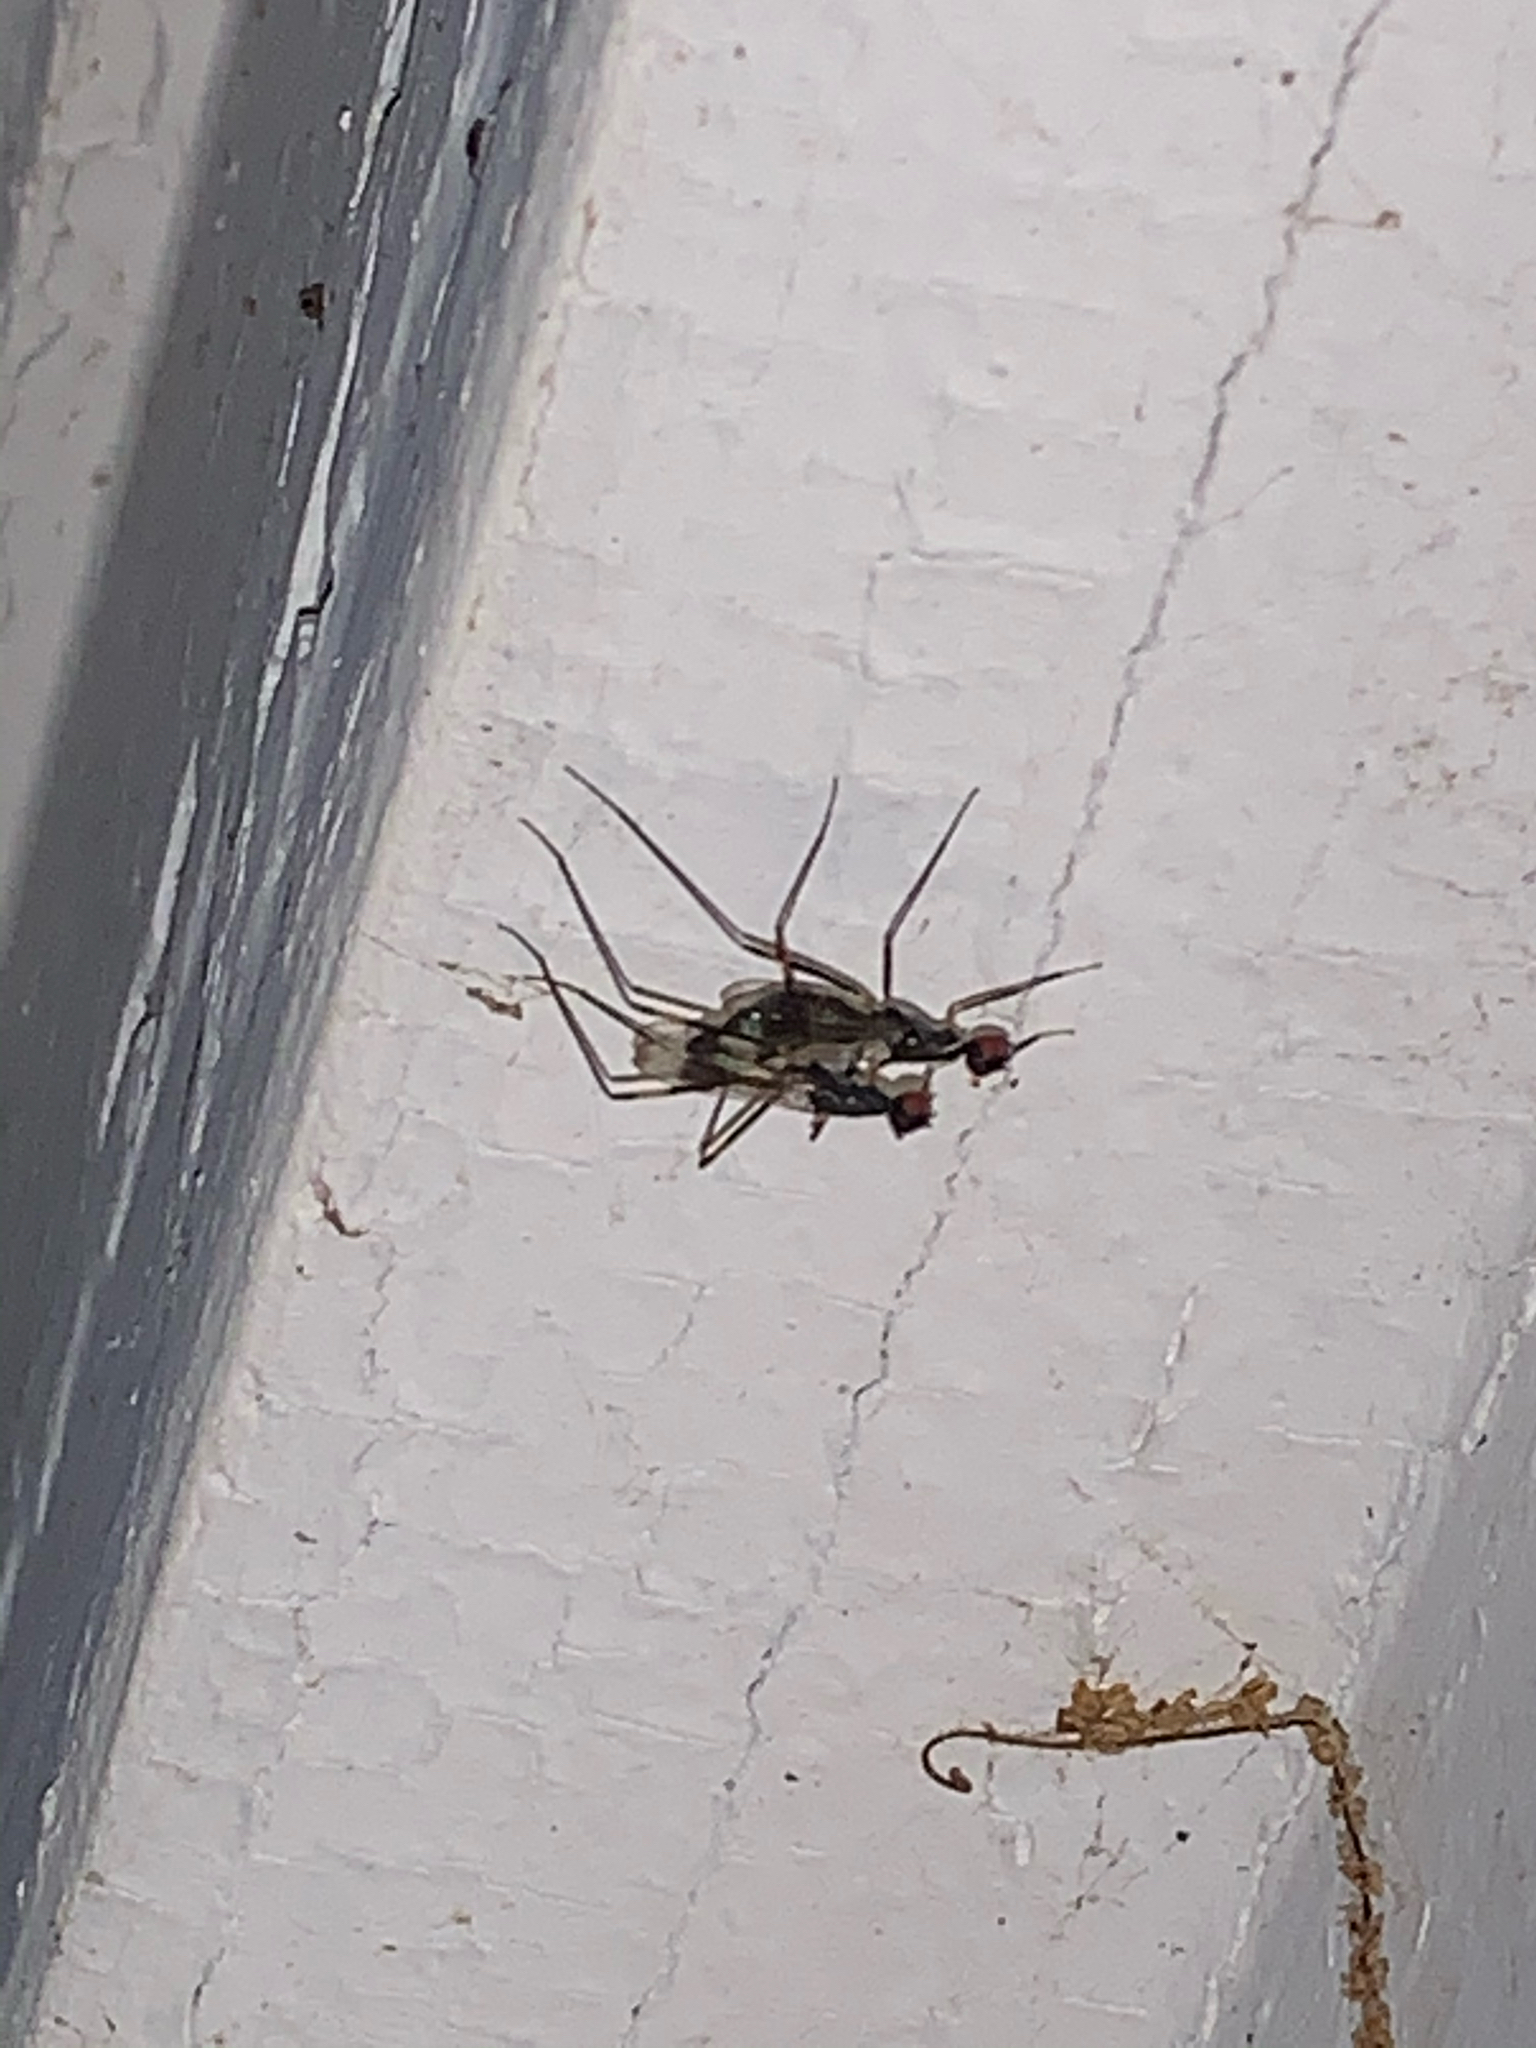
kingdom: Animalia
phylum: Arthropoda
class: Insecta
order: Diptera
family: Micropezidae
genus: Rainieria
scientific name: Rainieria antennaepes
